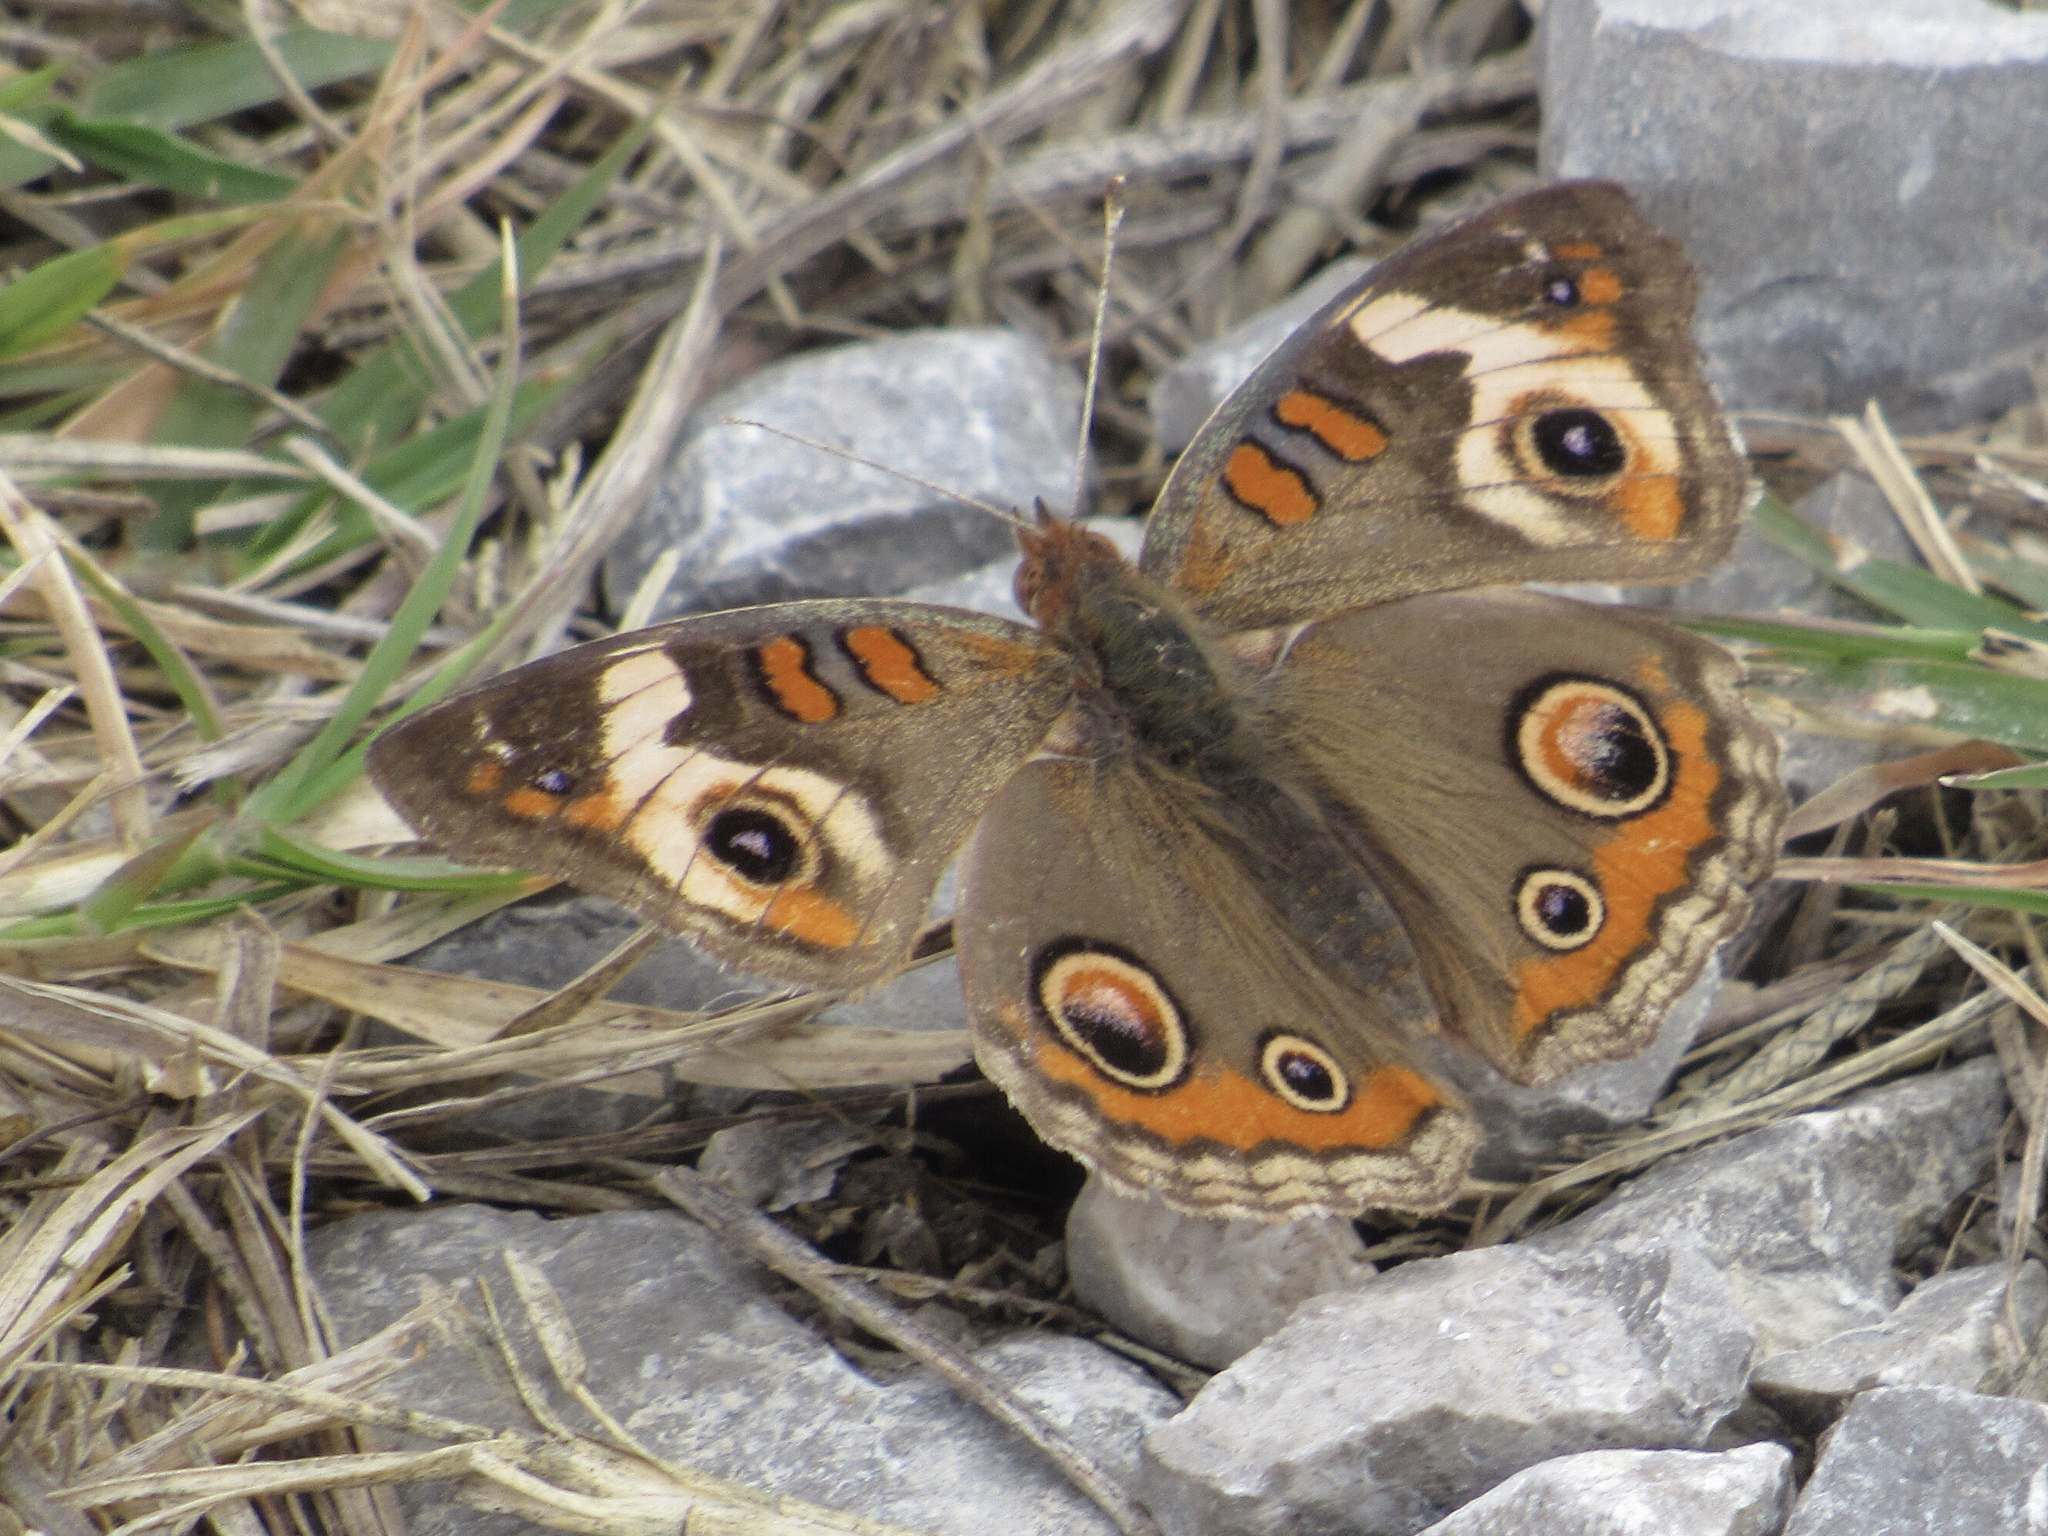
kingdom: Animalia
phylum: Arthropoda
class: Insecta
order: Lepidoptera
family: Nymphalidae
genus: Junonia
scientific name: Junonia coenia
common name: Common buckeye
